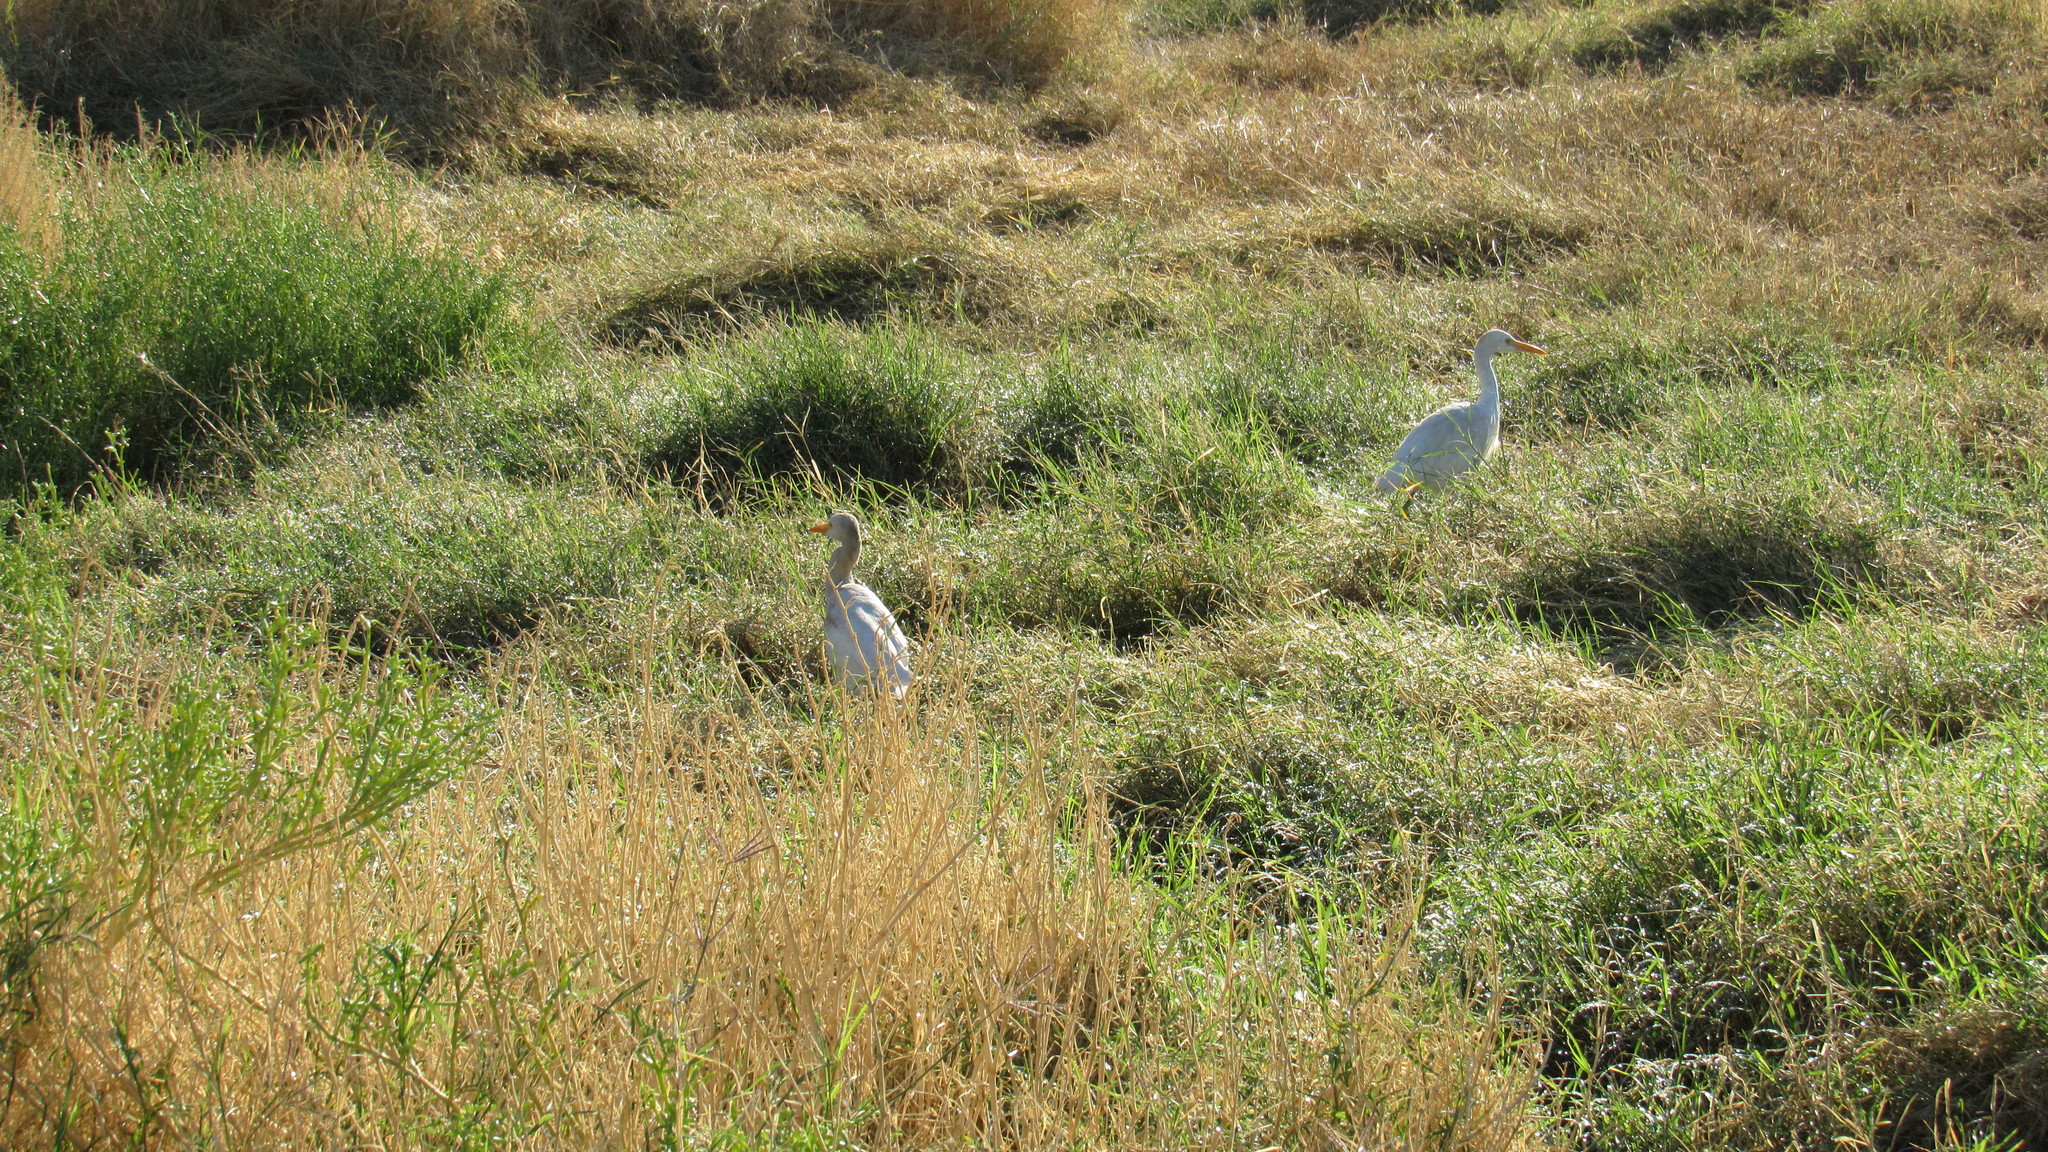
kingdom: Animalia
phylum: Chordata
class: Aves
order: Pelecaniformes
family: Ardeidae
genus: Bubulcus
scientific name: Bubulcus ibis
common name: Cattle egret
